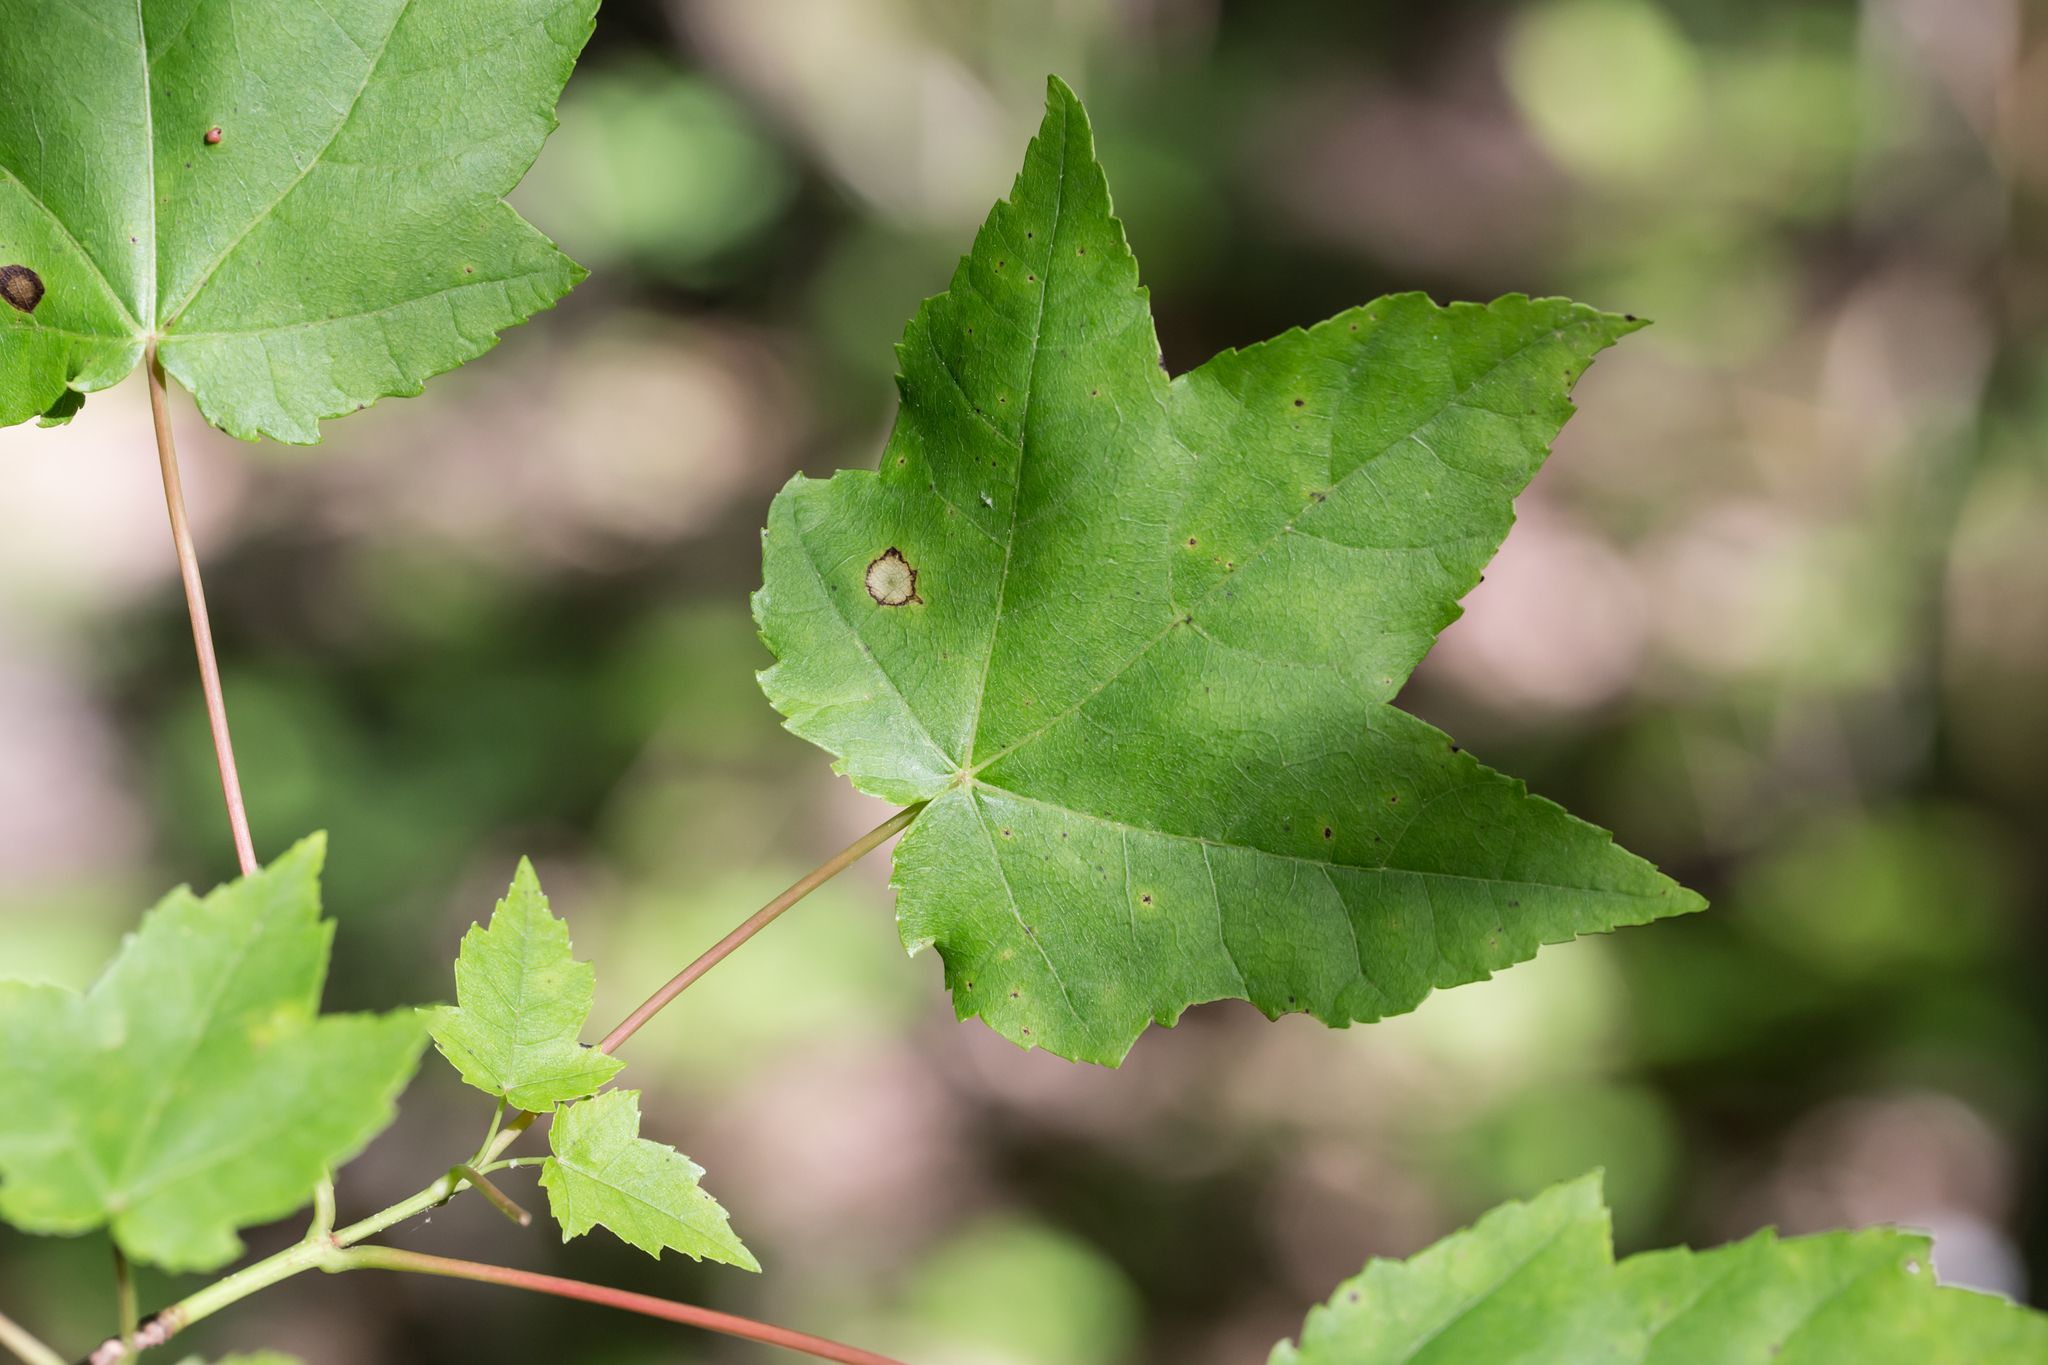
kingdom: Plantae
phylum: Tracheophyta
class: Magnoliopsida
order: Sapindales
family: Sapindaceae
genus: Acer
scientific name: Acer rubrum
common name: Red maple
